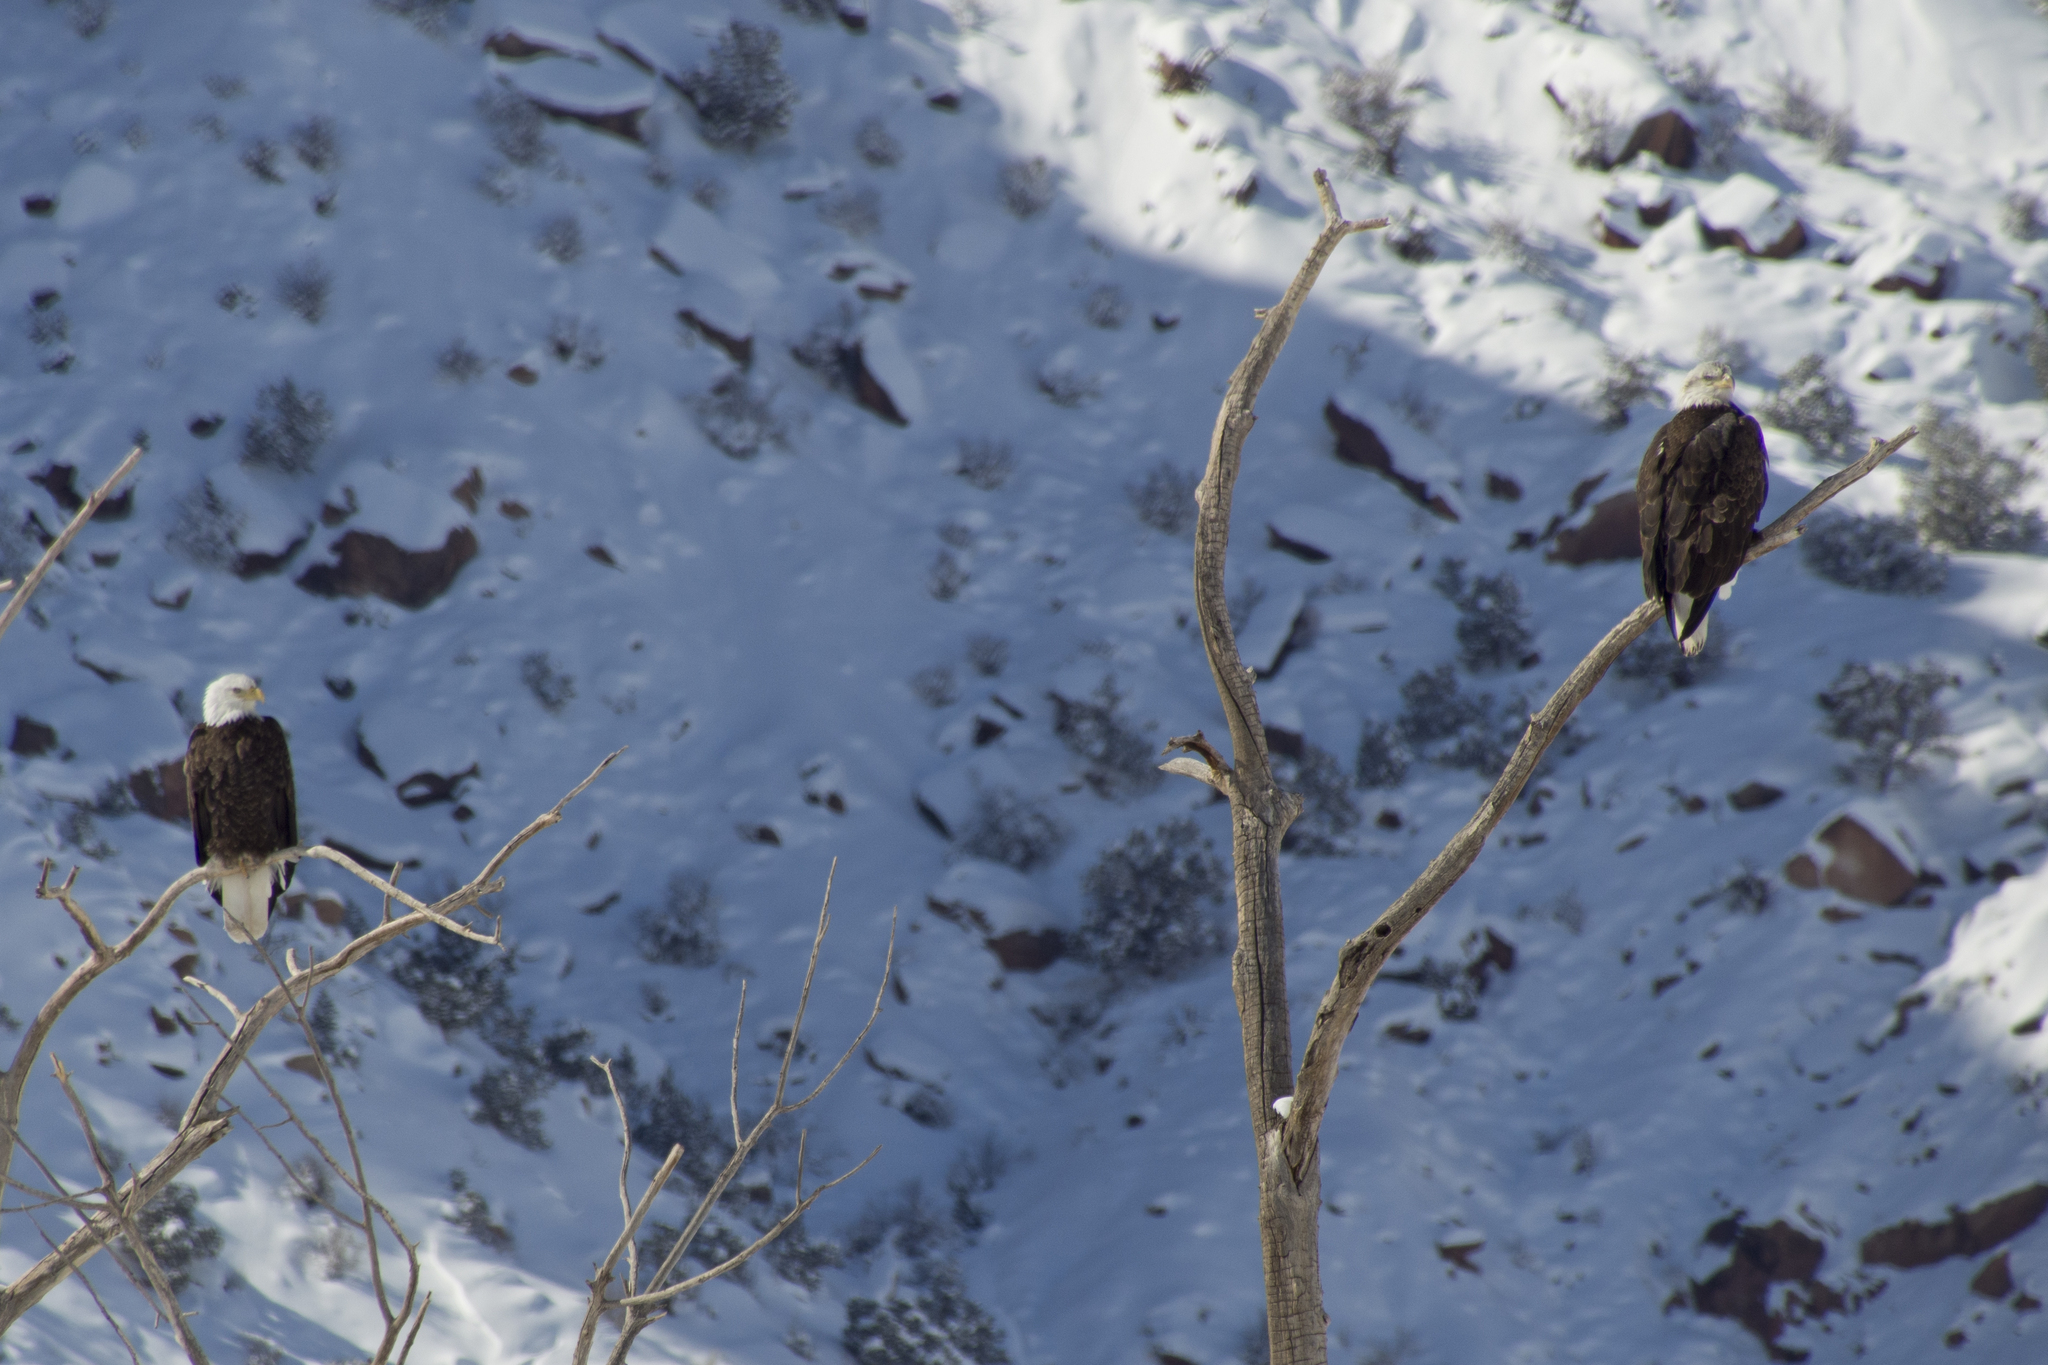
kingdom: Animalia
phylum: Chordata
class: Aves
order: Accipitriformes
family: Accipitridae
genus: Haliaeetus
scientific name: Haliaeetus leucocephalus
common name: Bald eagle
